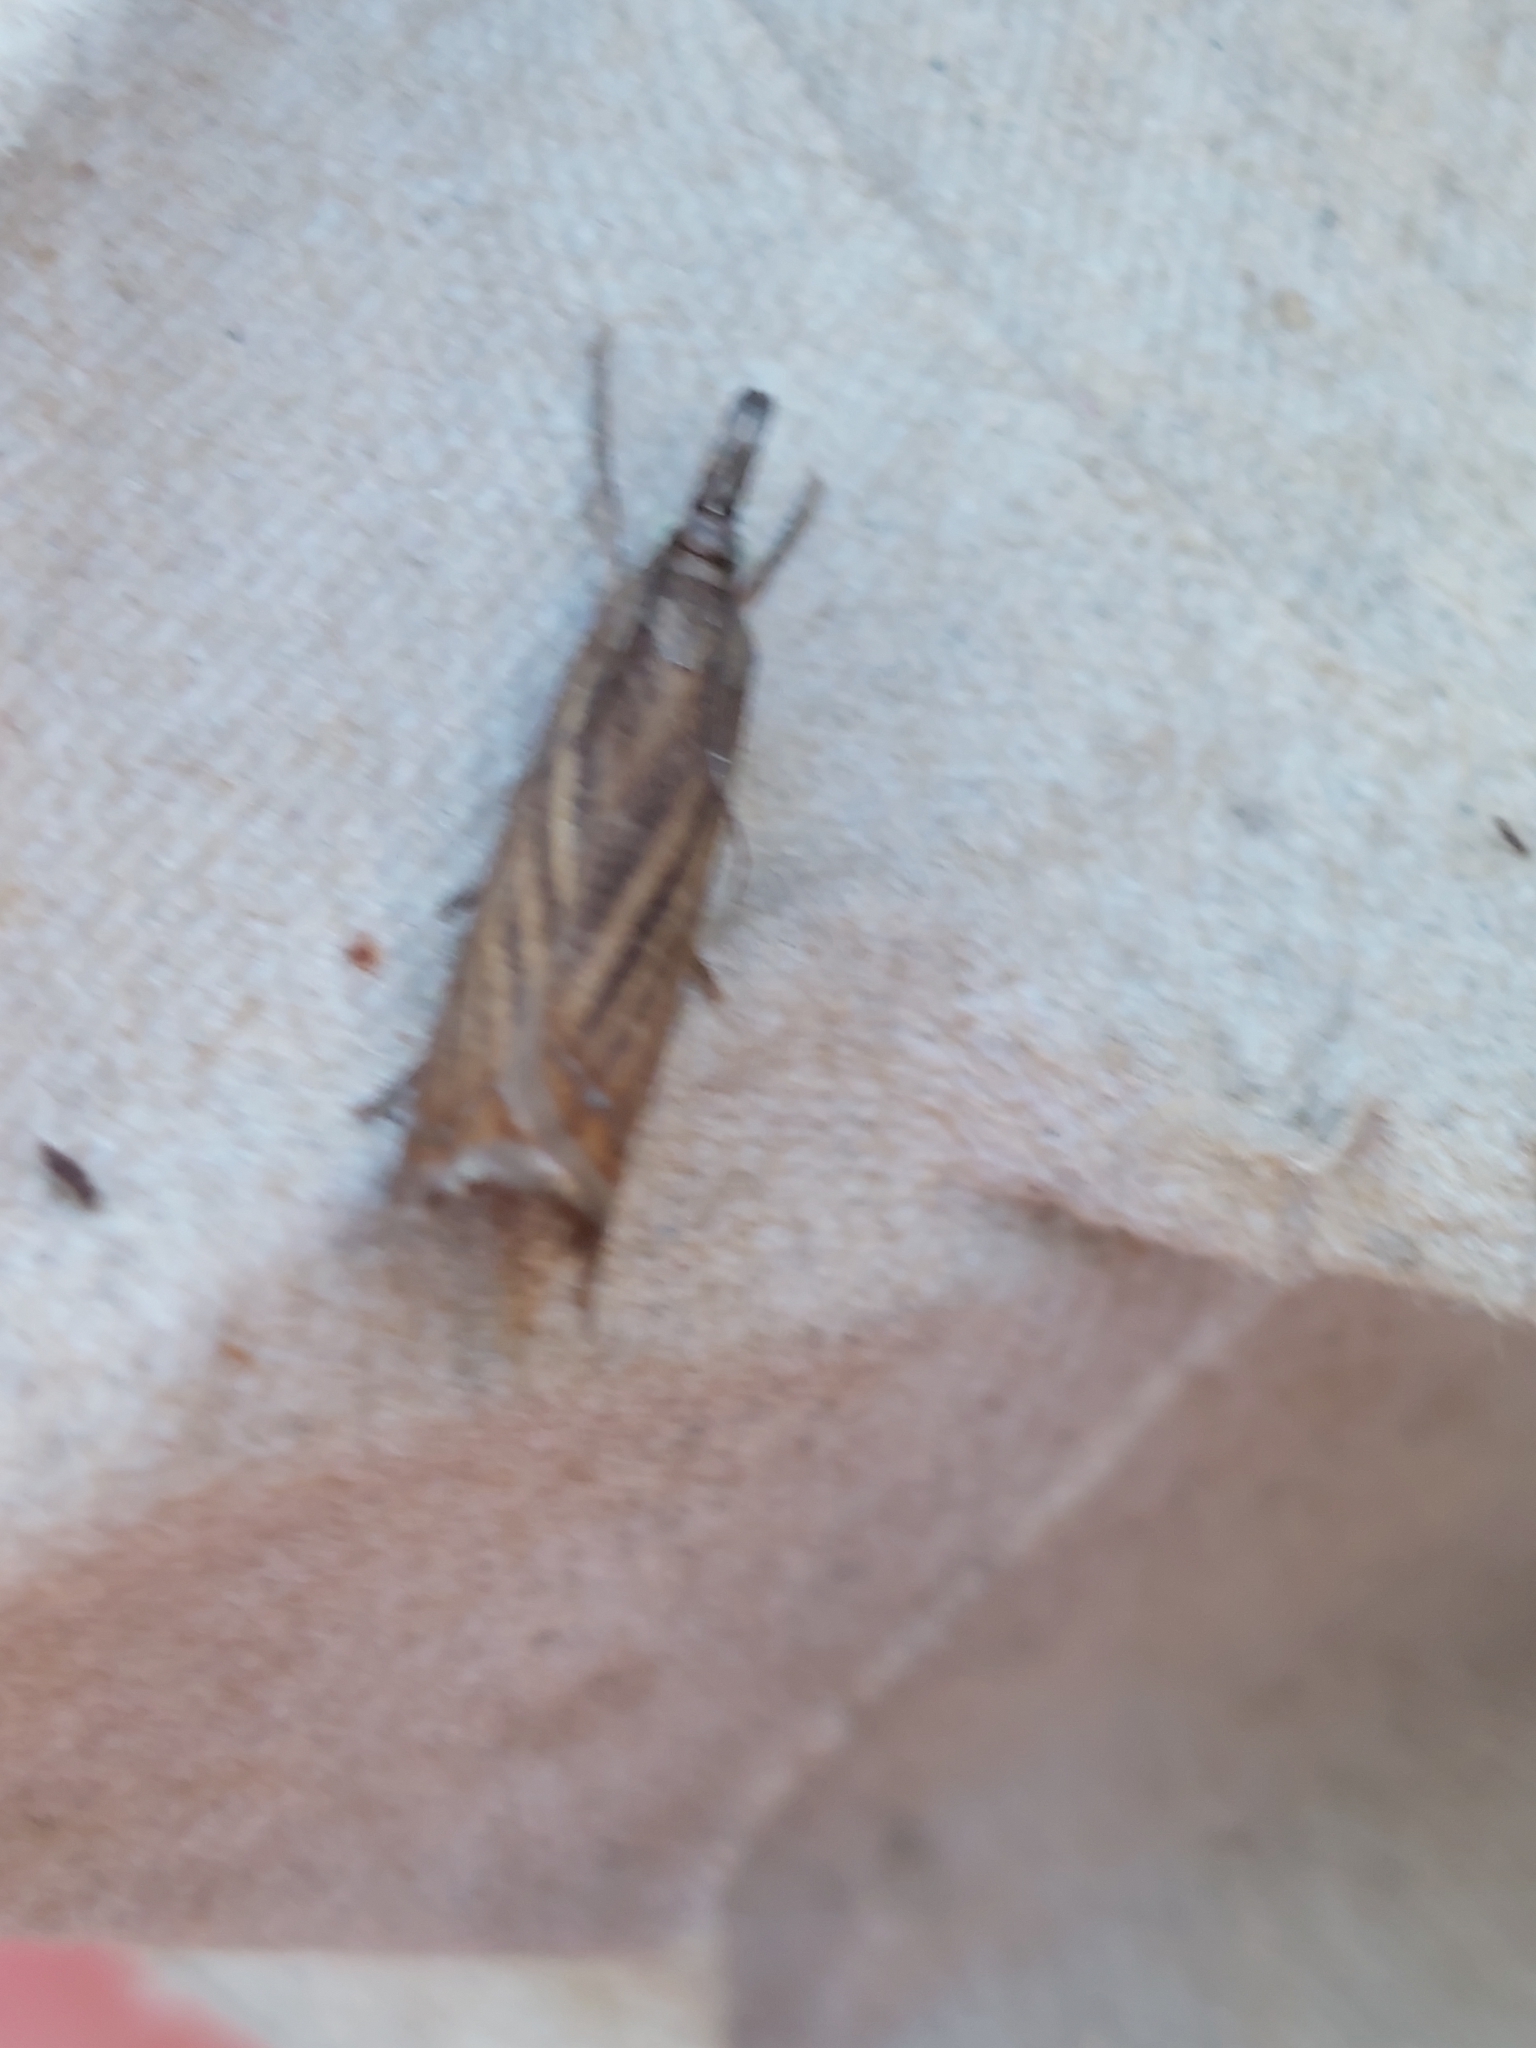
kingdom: Animalia
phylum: Arthropoda
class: Insecta
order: Lepidoptera
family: Crambidae
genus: Chrysoteuchia
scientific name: Chrysoteuchia culmella
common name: Garden grass-veneer
